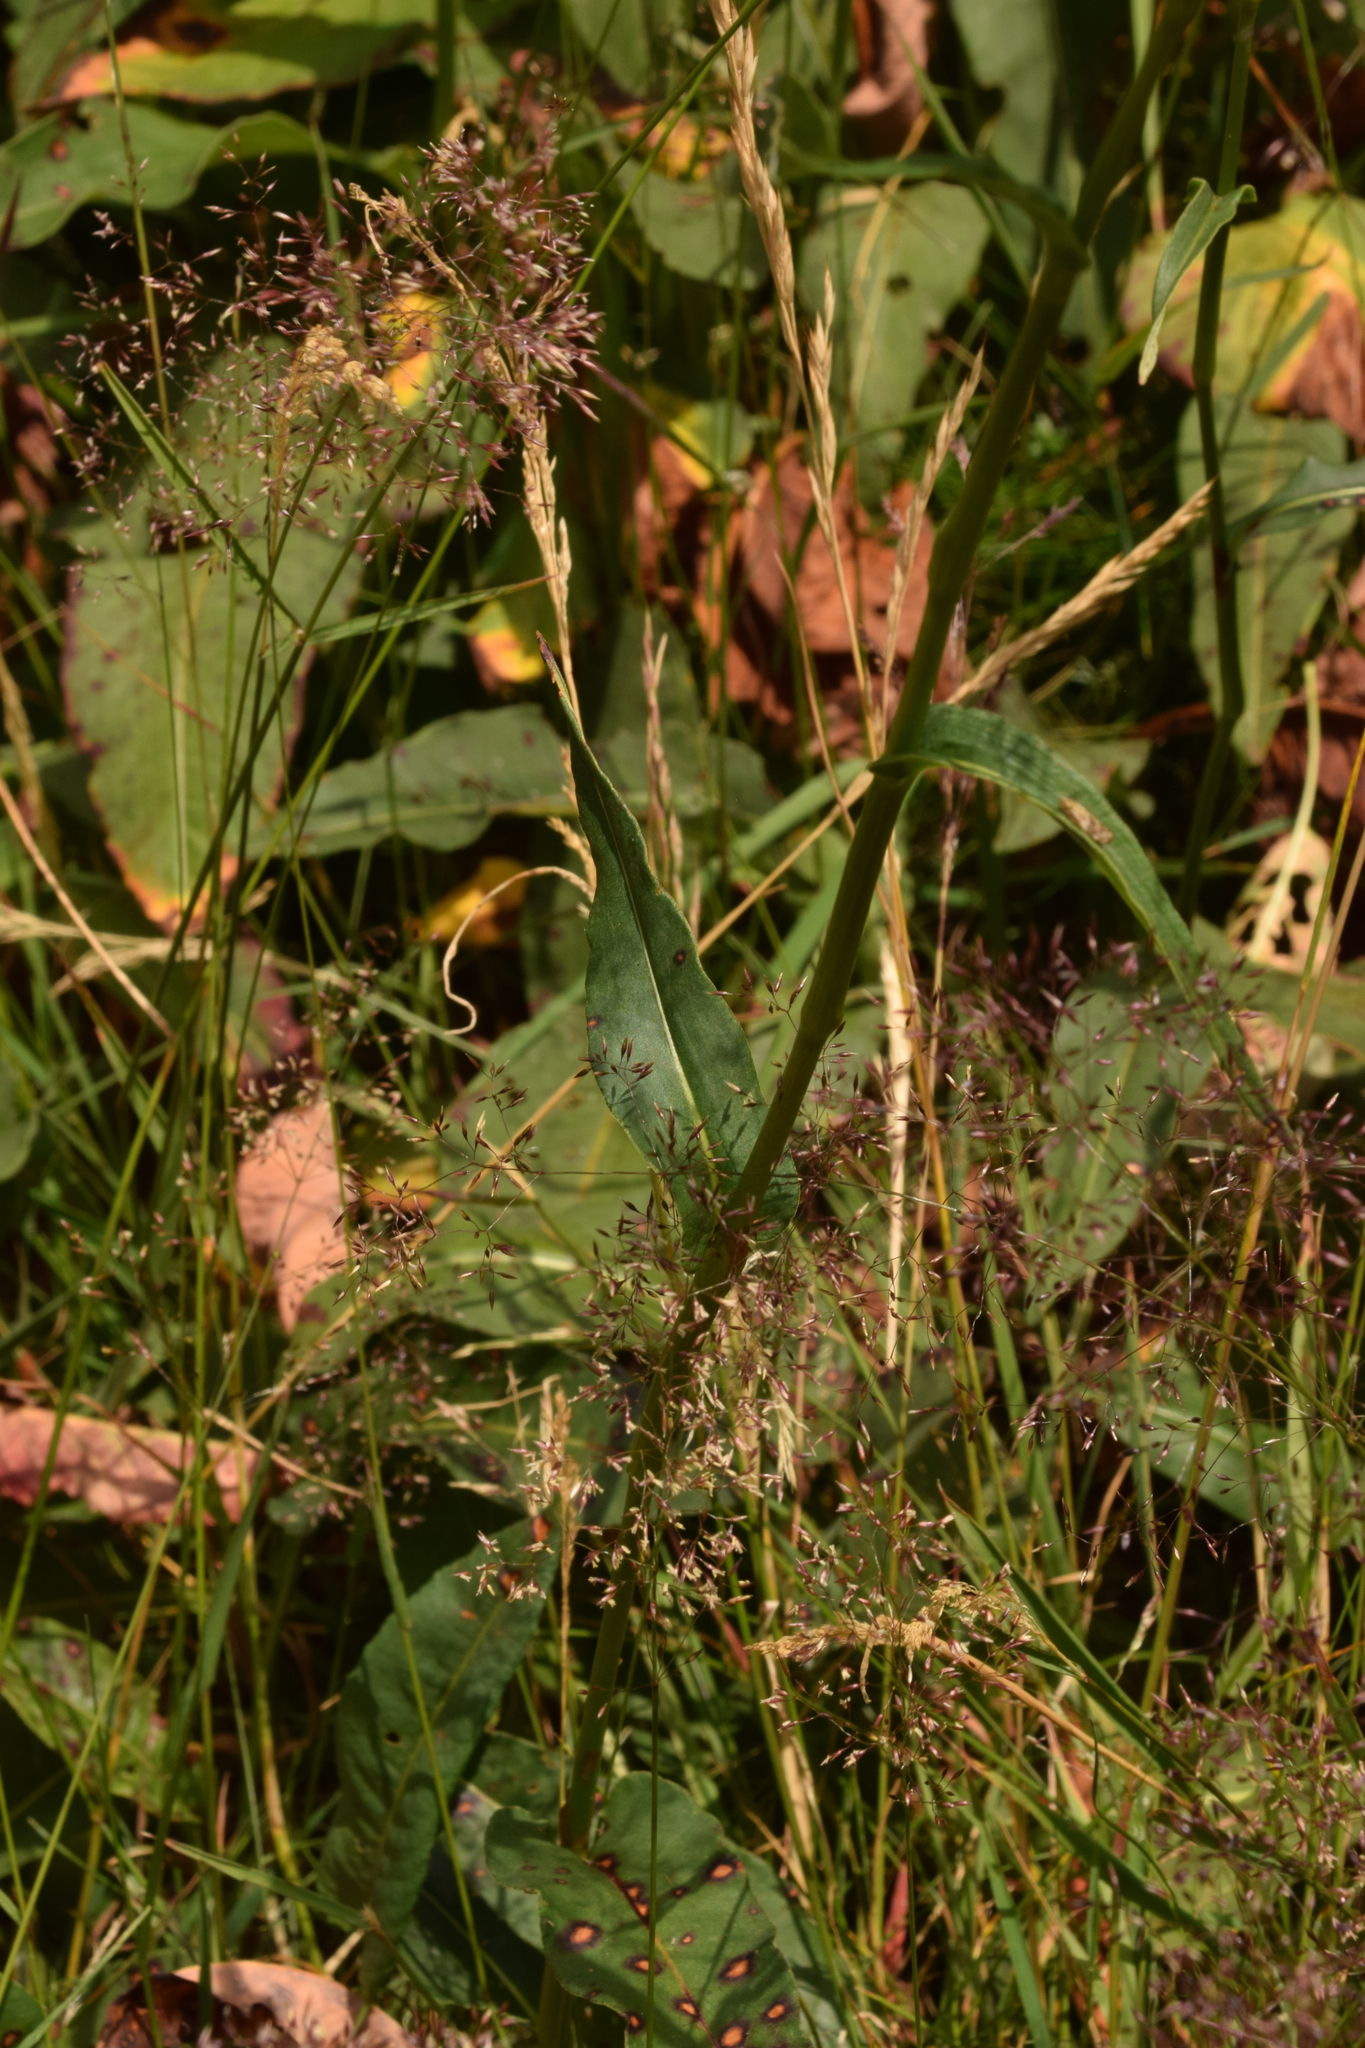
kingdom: Plantae
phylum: Tracheophyta
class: Magnoliopsida
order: Caryophyllales
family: Polygonaceae
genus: Bistorta
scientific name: Bistorta officinalis
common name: Common bistort
